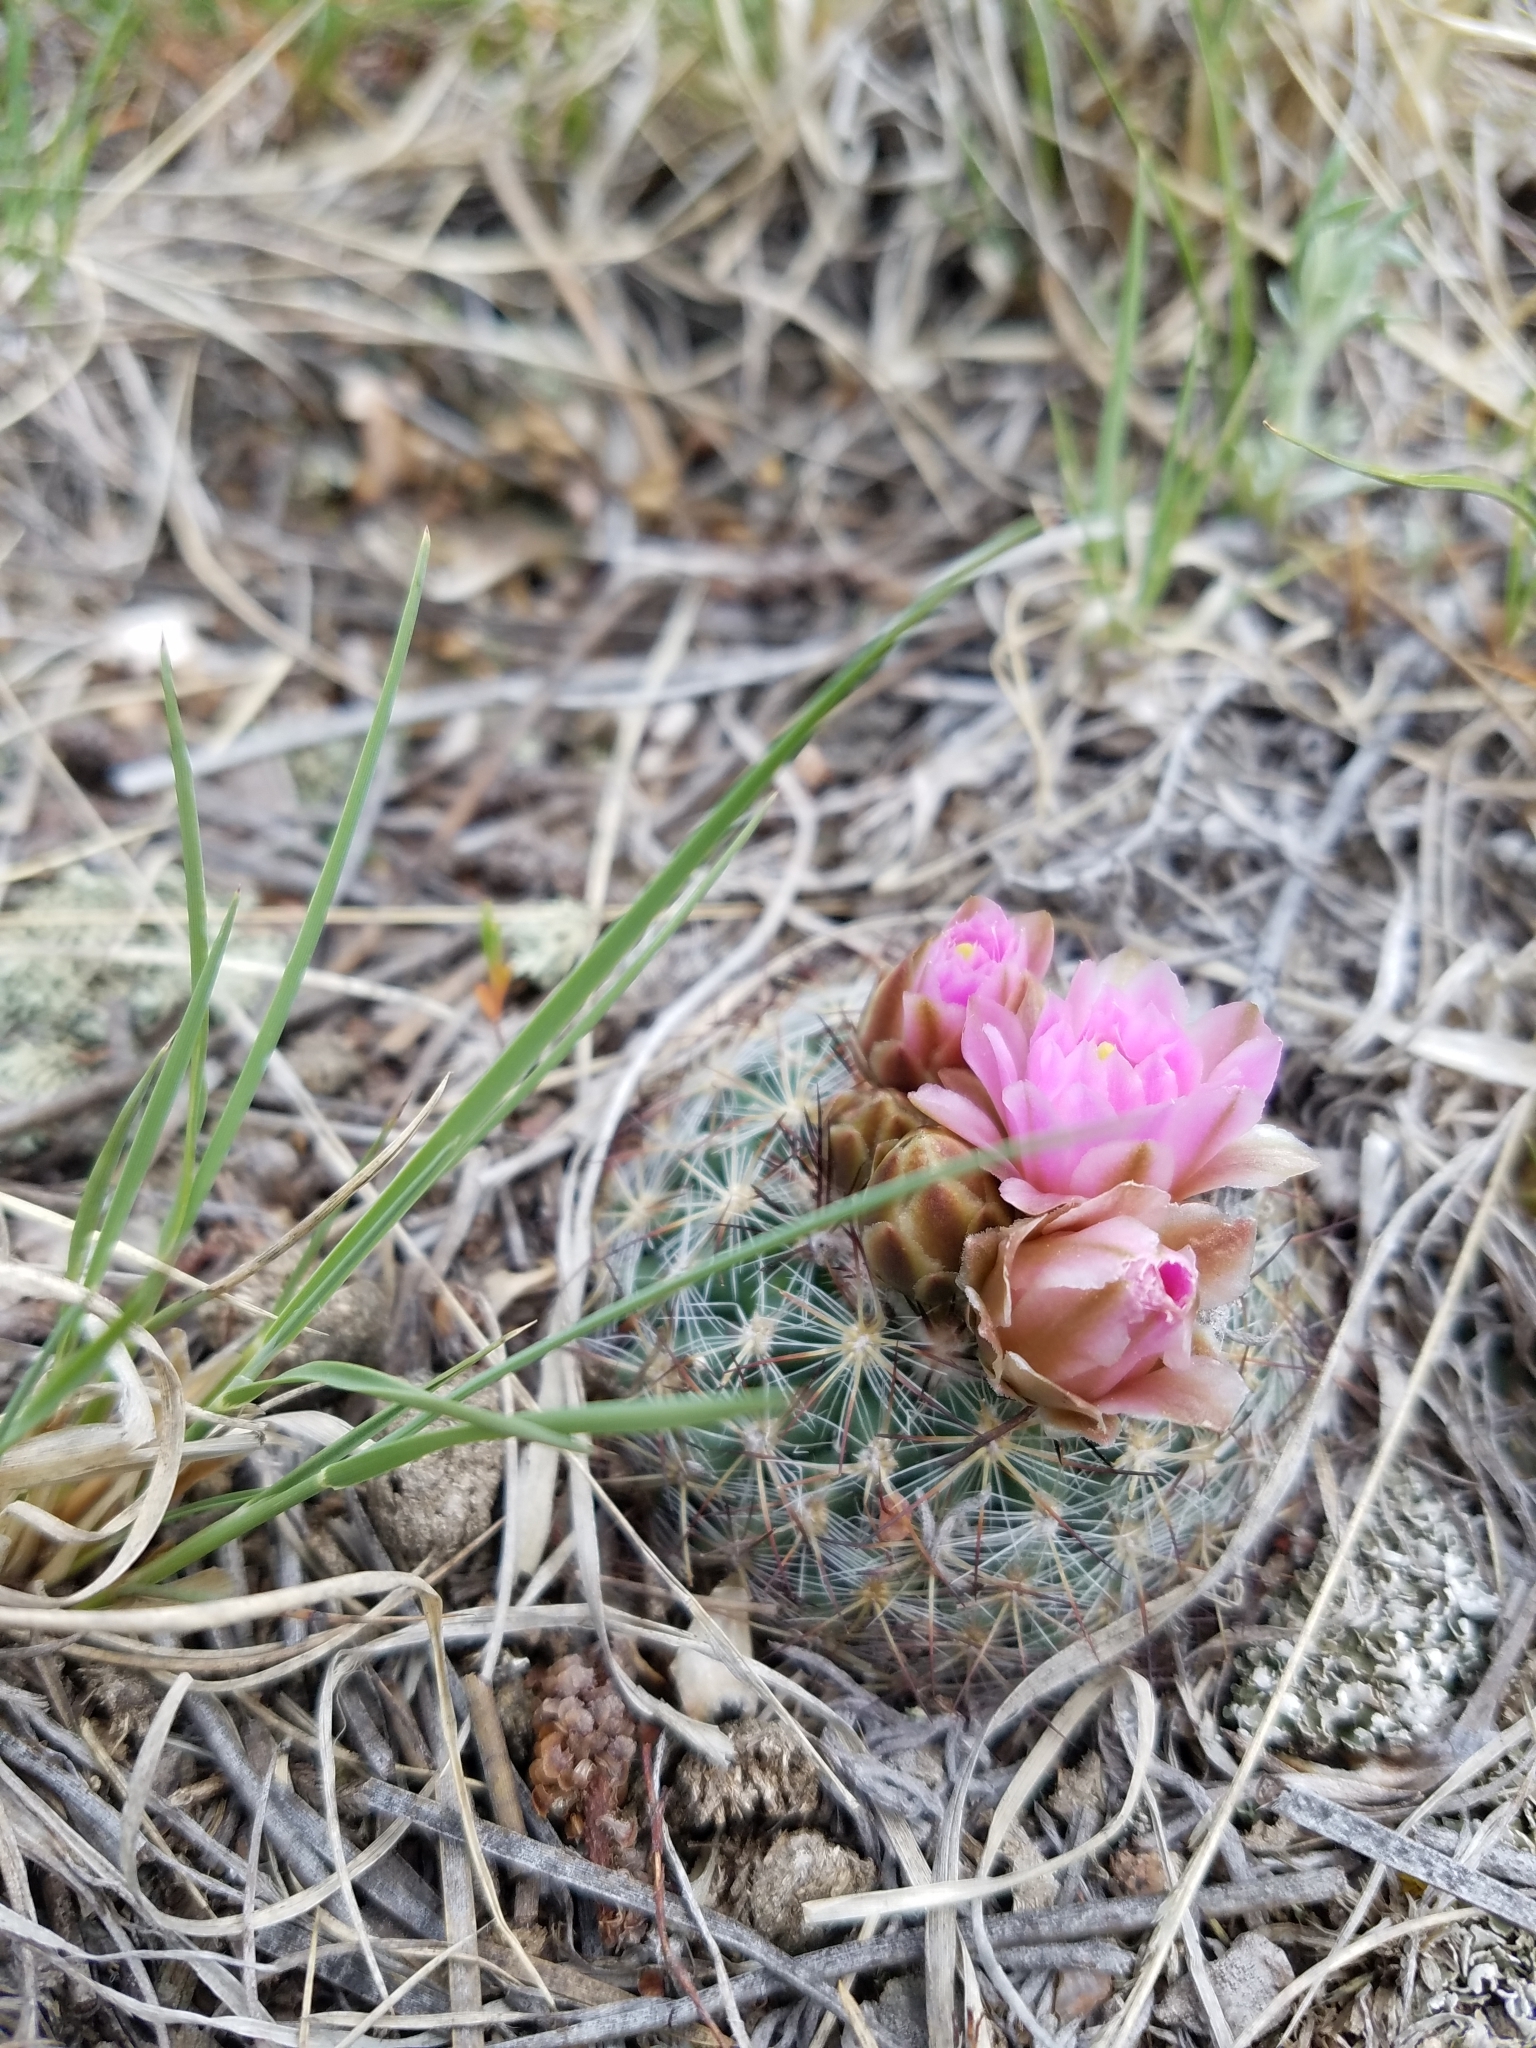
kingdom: Plantae
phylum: Tracheophyta
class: Magnoliopsida
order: Caryophyllales
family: Cactaceae
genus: Pediocactus
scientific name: Pediocactus simpsonii
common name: Simpson's hedgehog cactus
